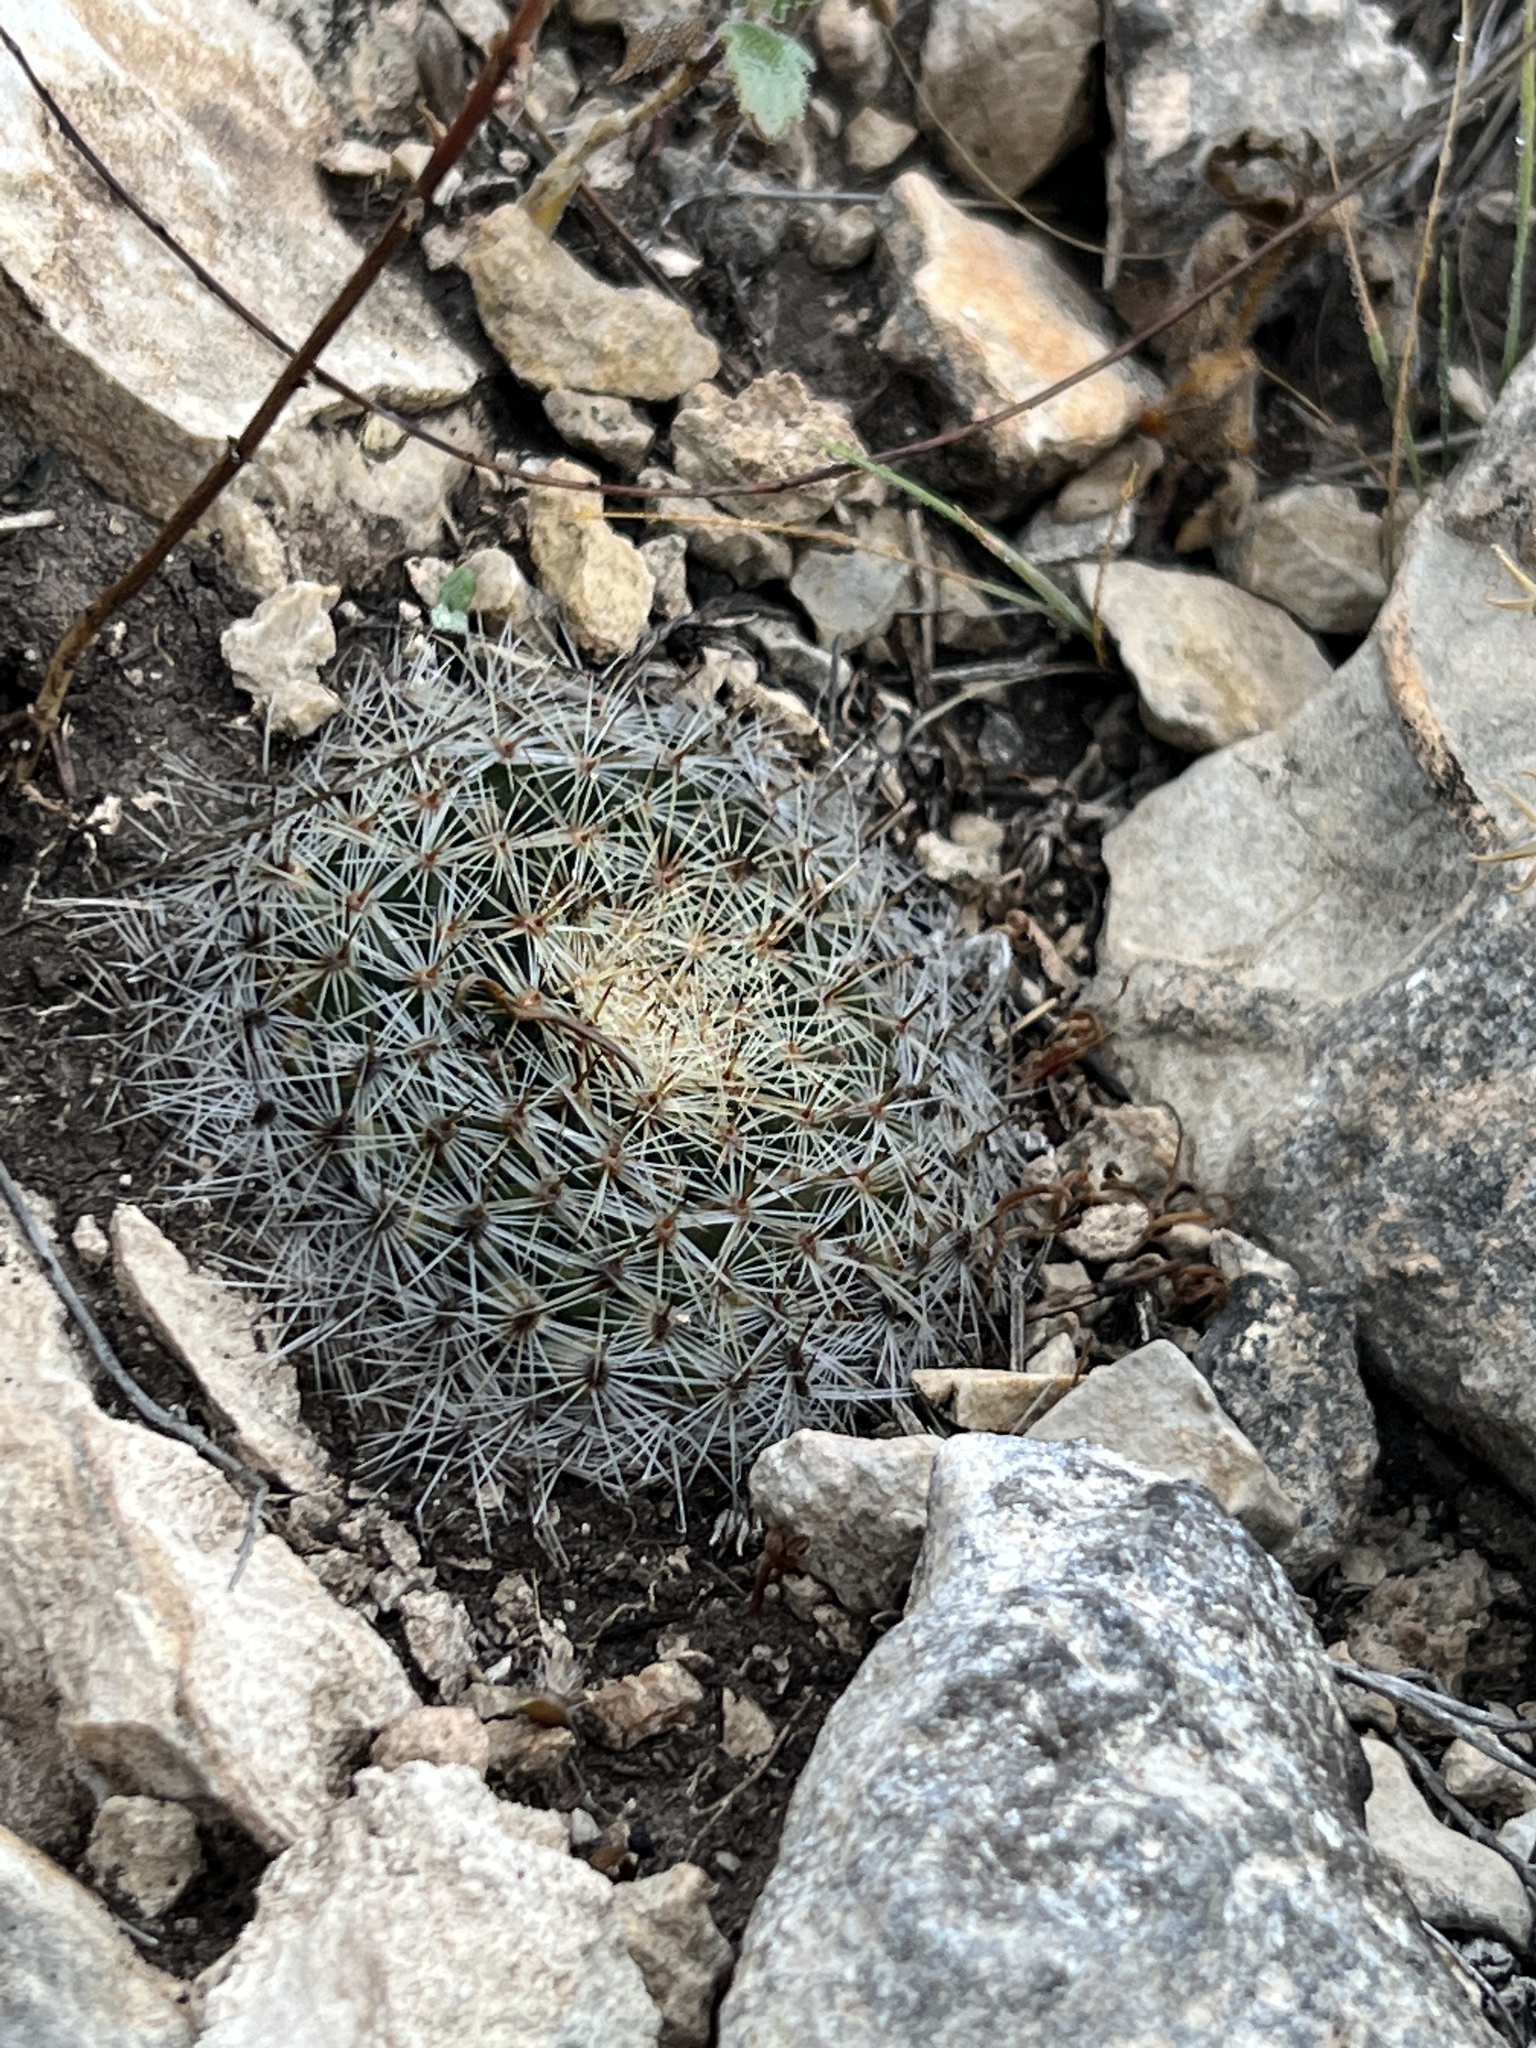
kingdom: Plantae
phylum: Tracheophyta
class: Magnoliopsida
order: Caryophyllales
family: Cactaceae
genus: Mammillaria
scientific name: Mammillaria heyderi
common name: Little nipple cactus
